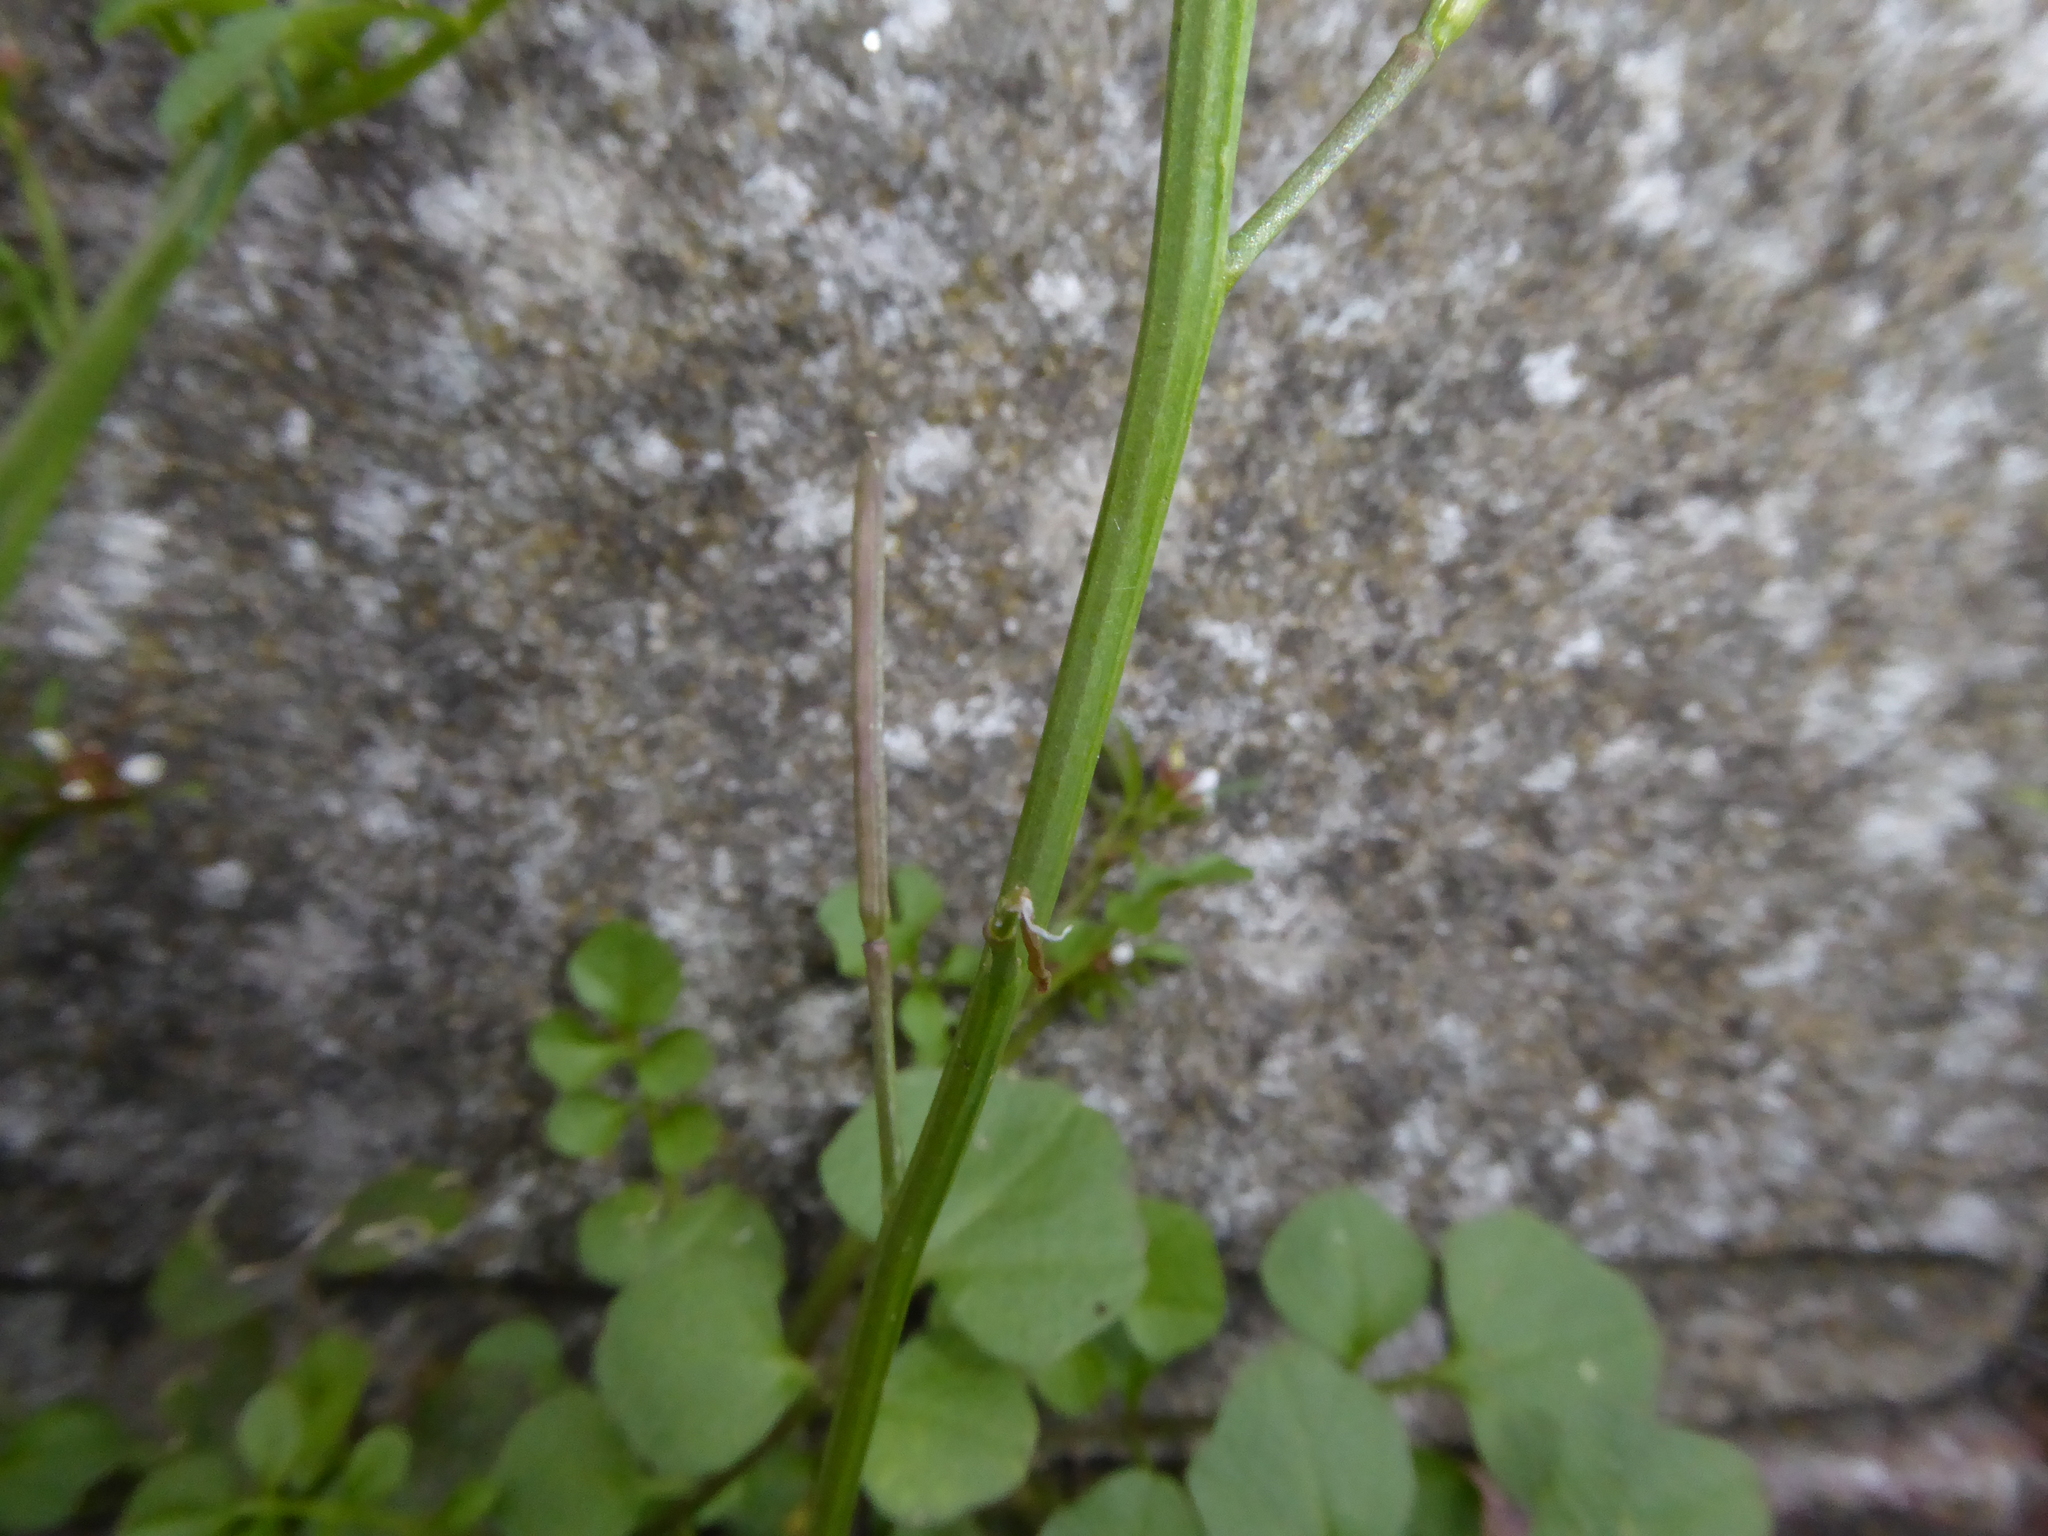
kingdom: Plantae
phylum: Tracheophyta
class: Magnoliopsida
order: Brassicales
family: Brassicaceae
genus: Cardamine
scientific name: Cardamine hirsuta
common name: Hairy bittercress
